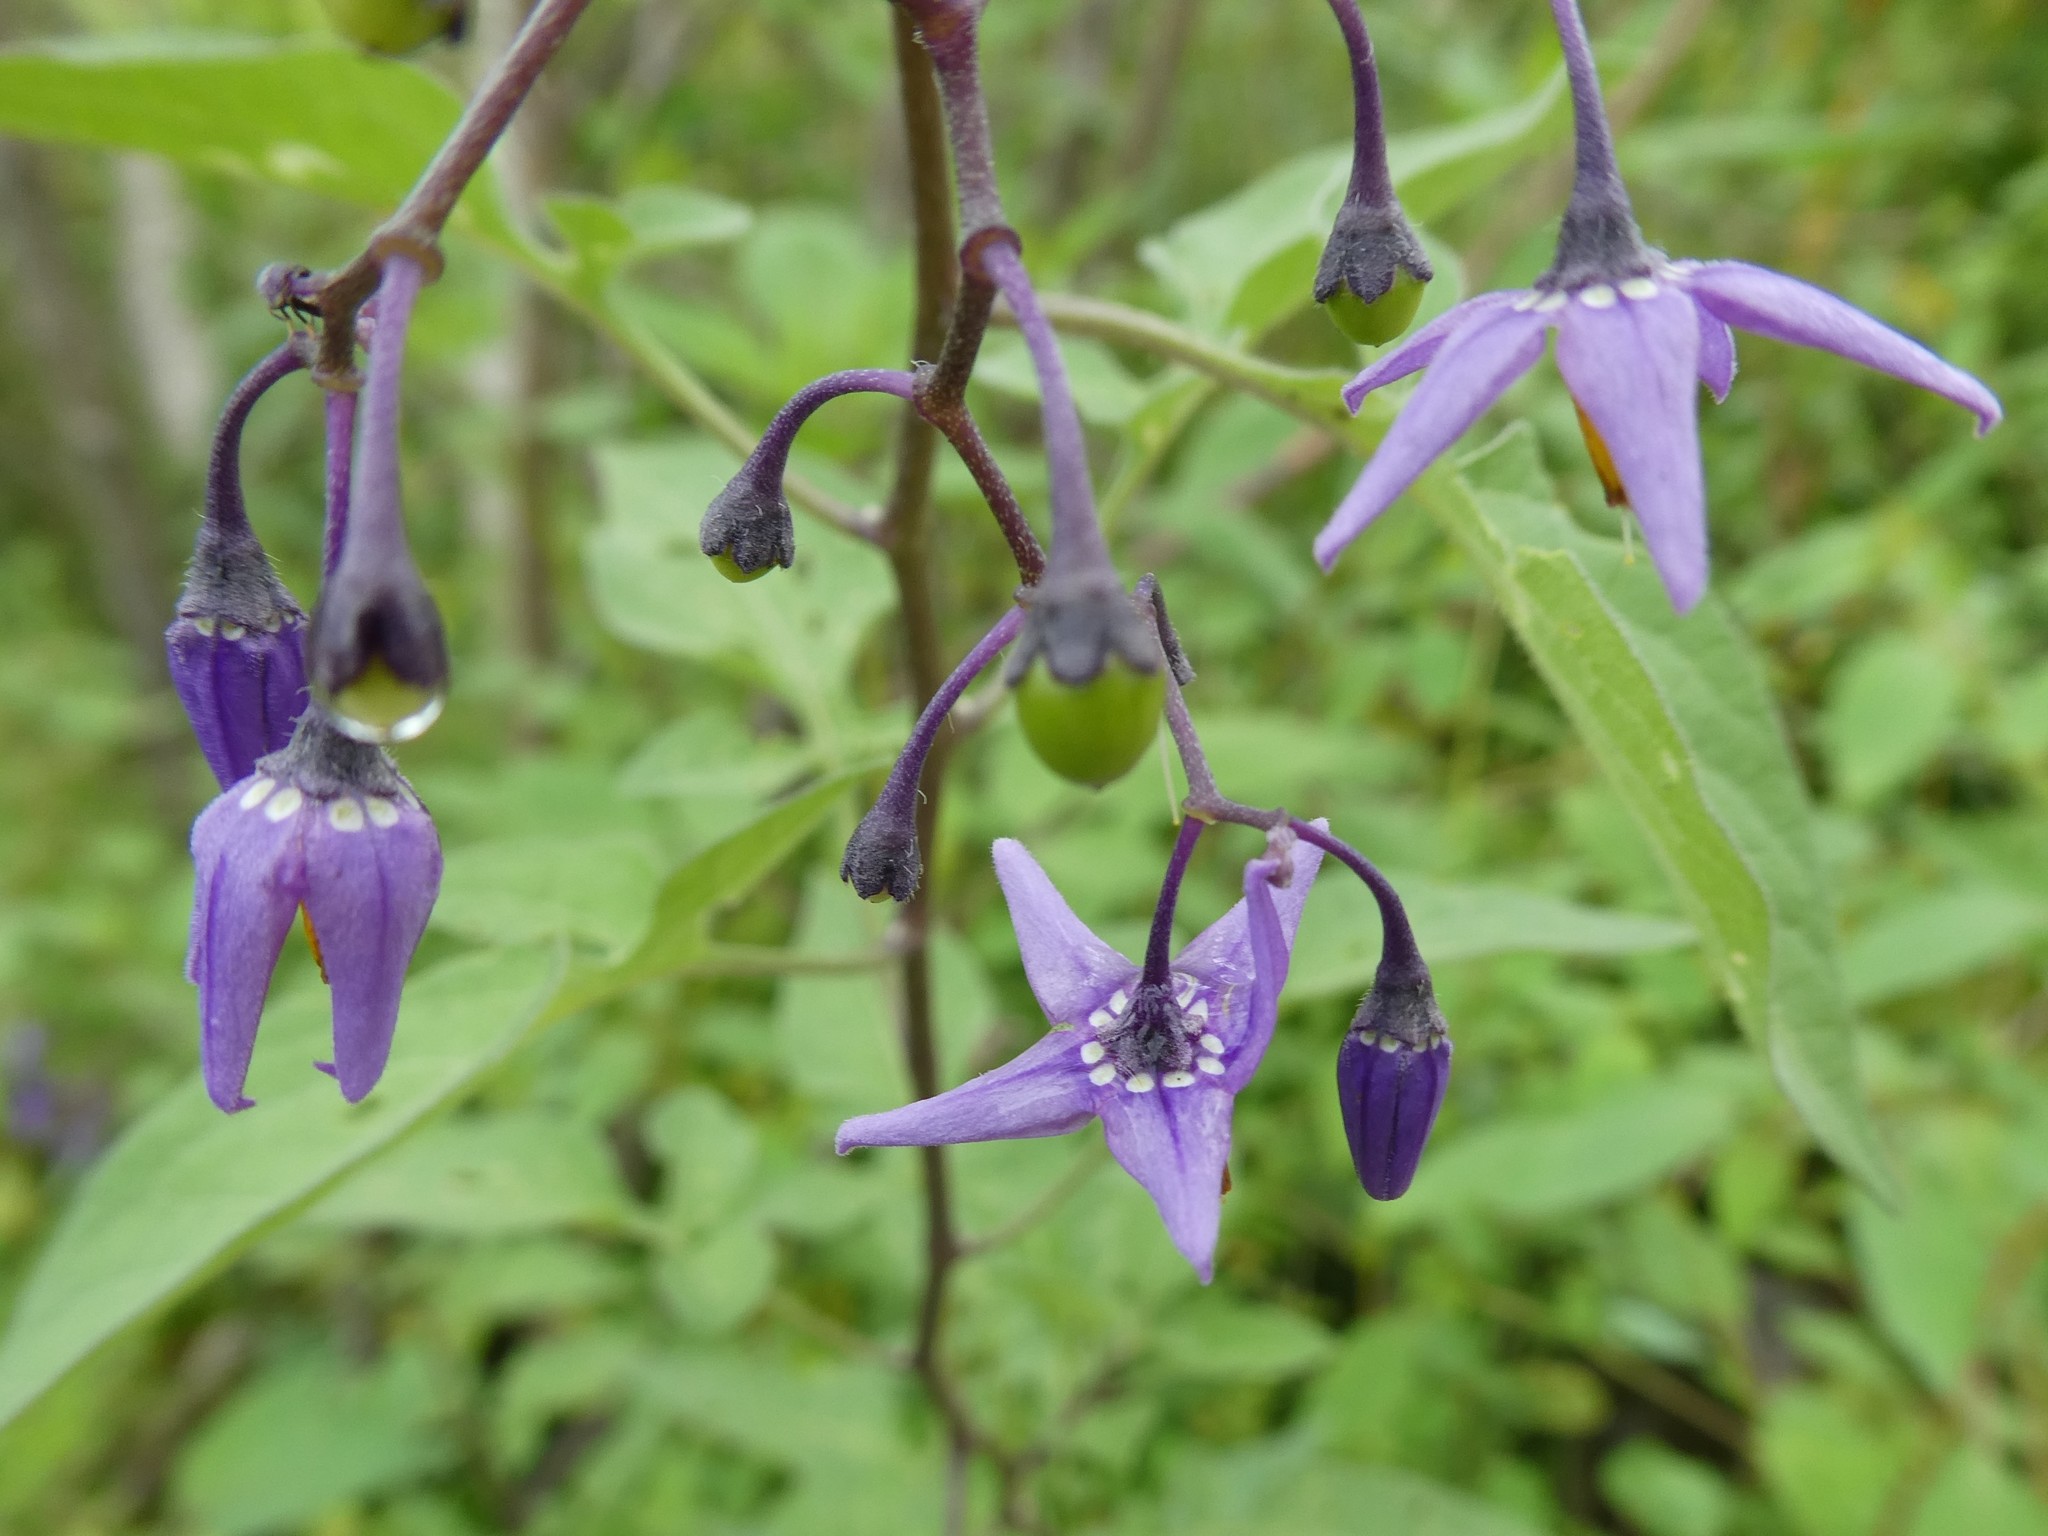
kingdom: Plantae
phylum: Tracheophyta
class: Magnoliopsida
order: Solanales
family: Solanaceae
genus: Solanum
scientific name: Solanum dulcamara
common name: Climbing nightshade
